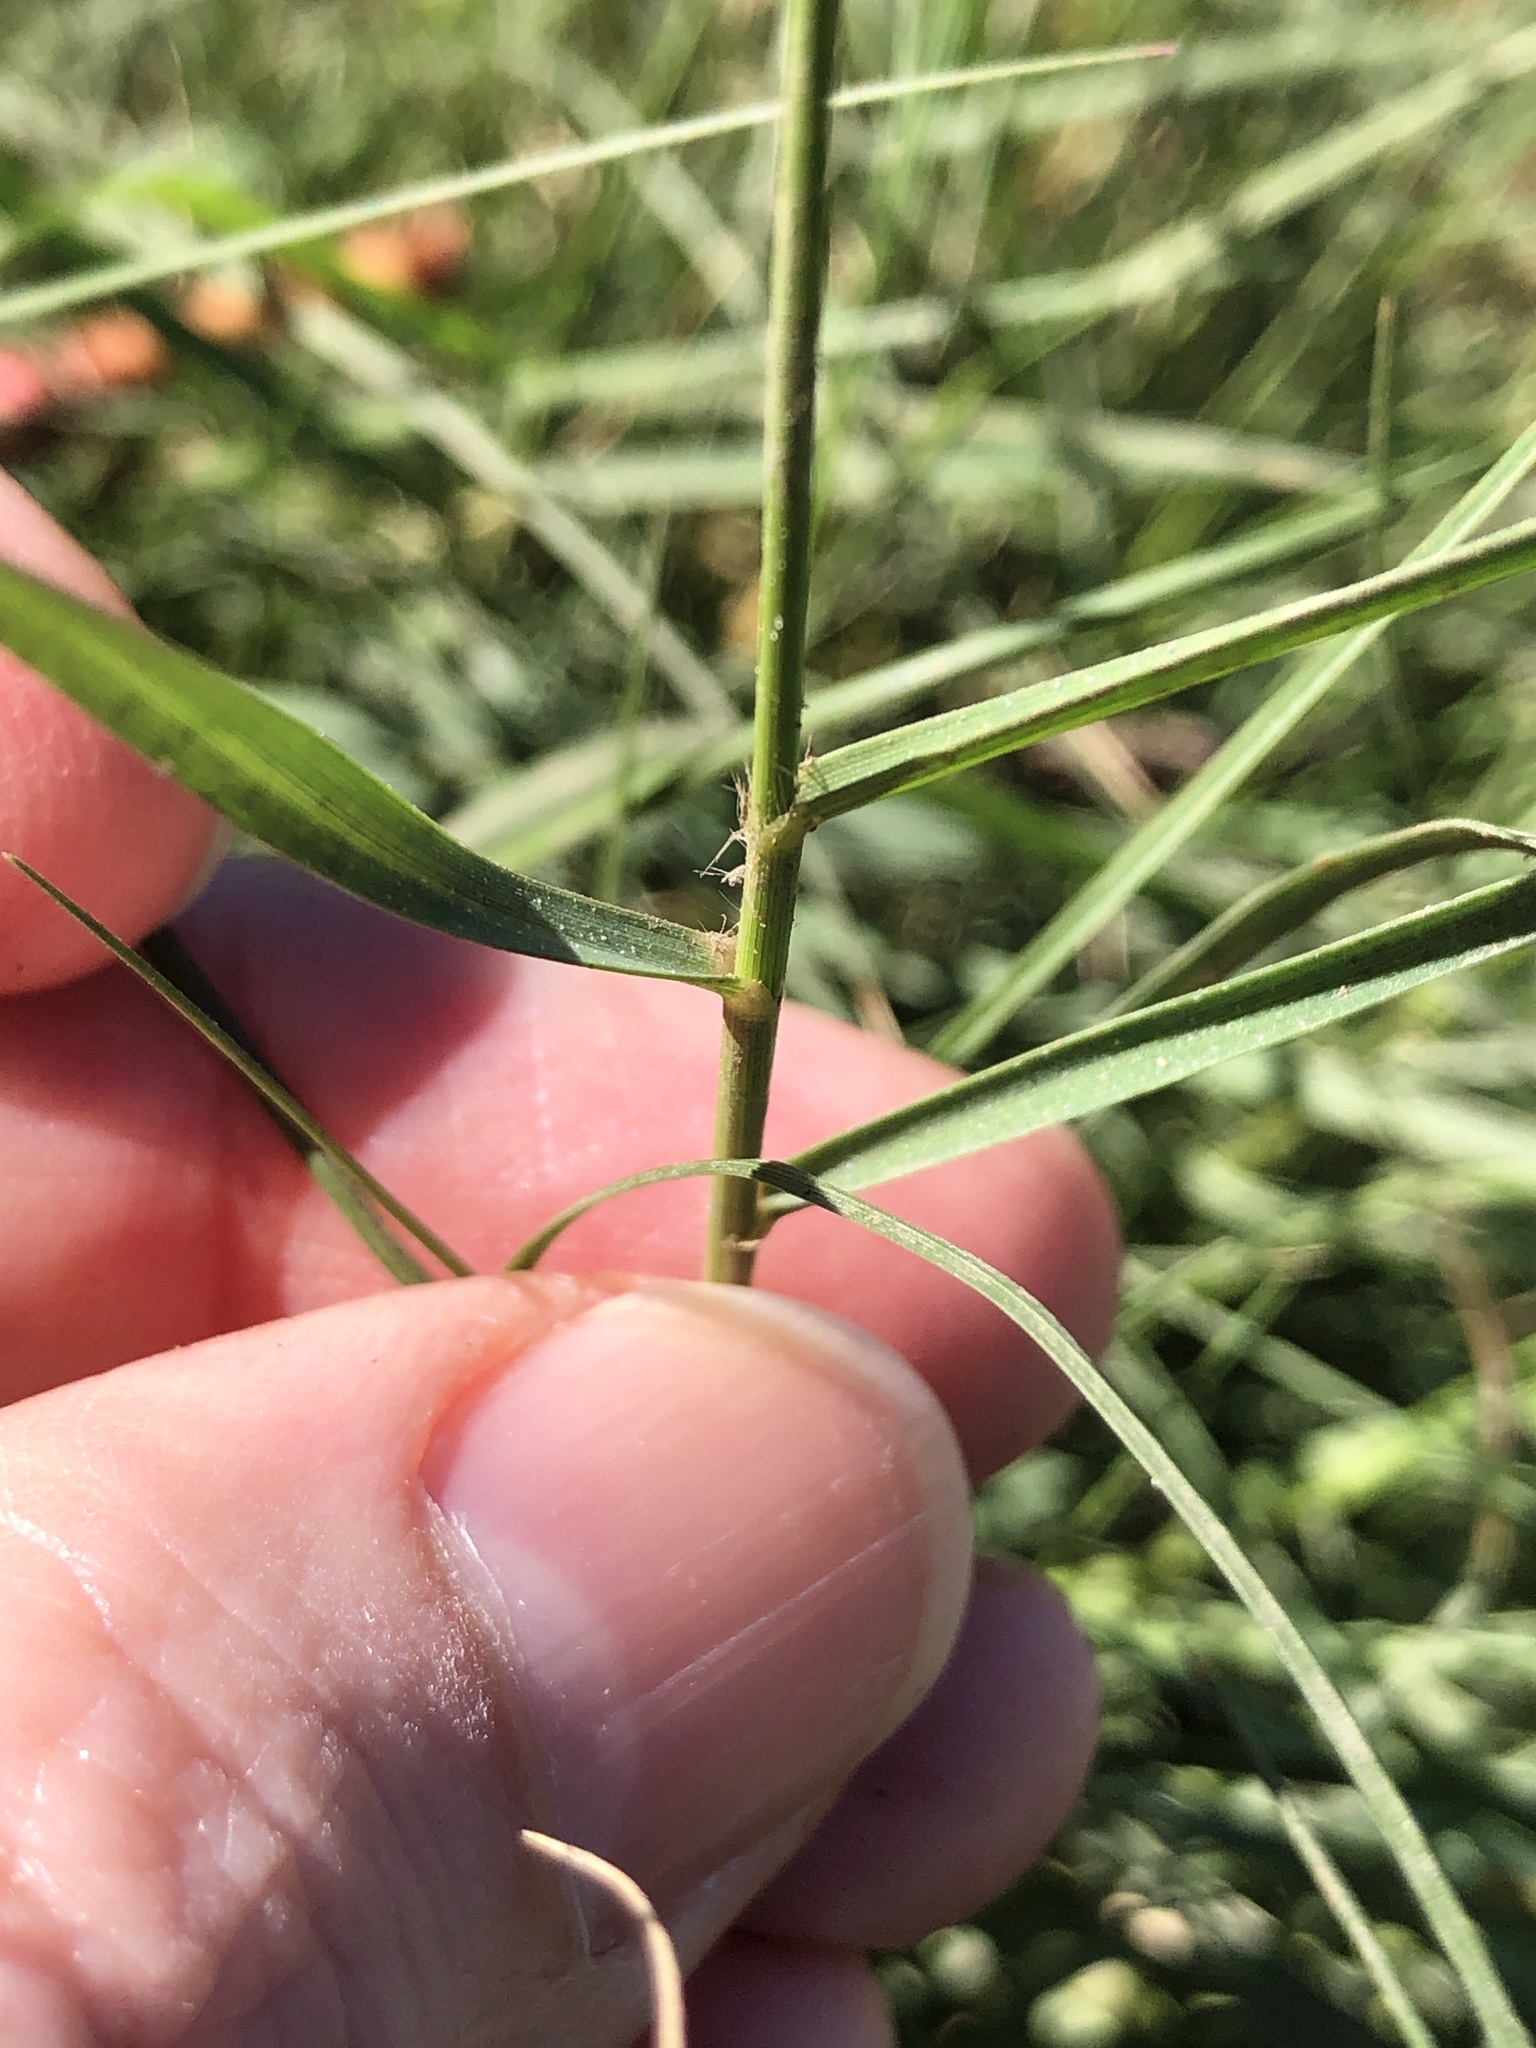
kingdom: Plantae
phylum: Tracheophyta
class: Liliopsida
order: Poales
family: Poaceae
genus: Sporobolus
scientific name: Sporobolus virginicus
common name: Beach dropseed
